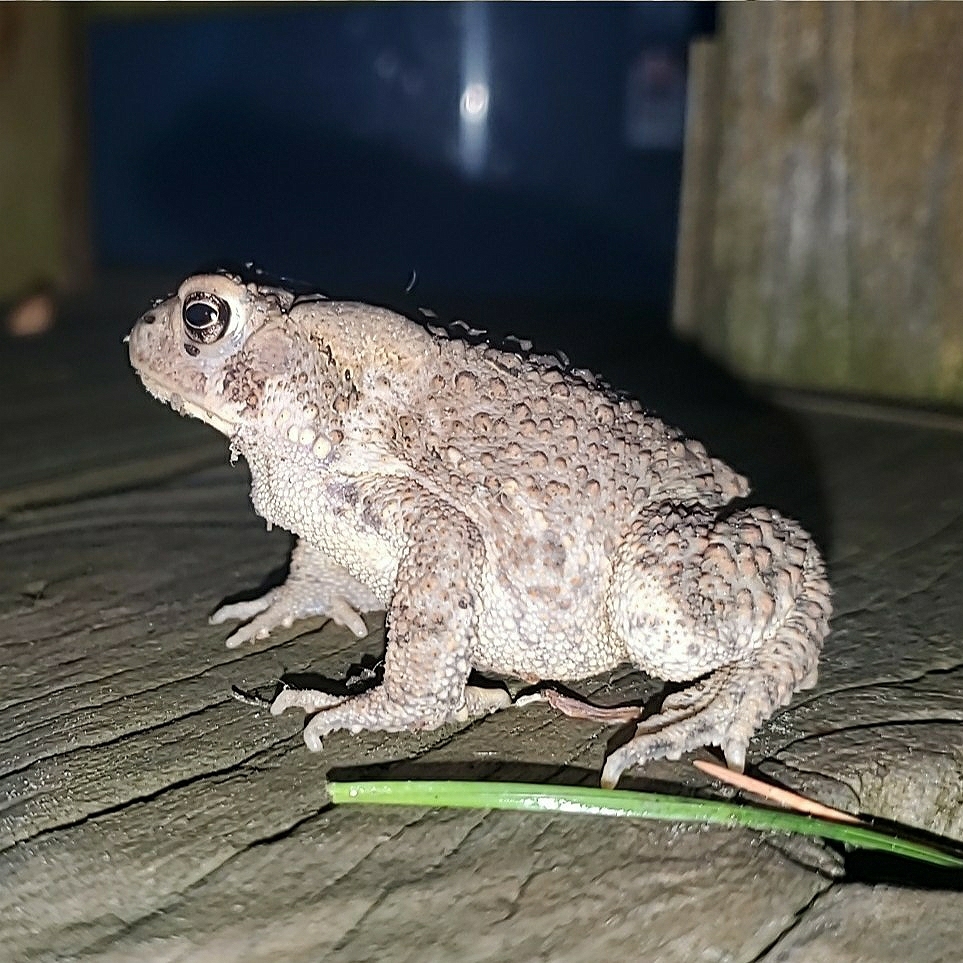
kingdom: Animalia
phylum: Chordata
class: Amphibia
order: Anura
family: Bufonidae
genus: Anaxyrus
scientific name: Anaxyrus americanus
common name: American toad
